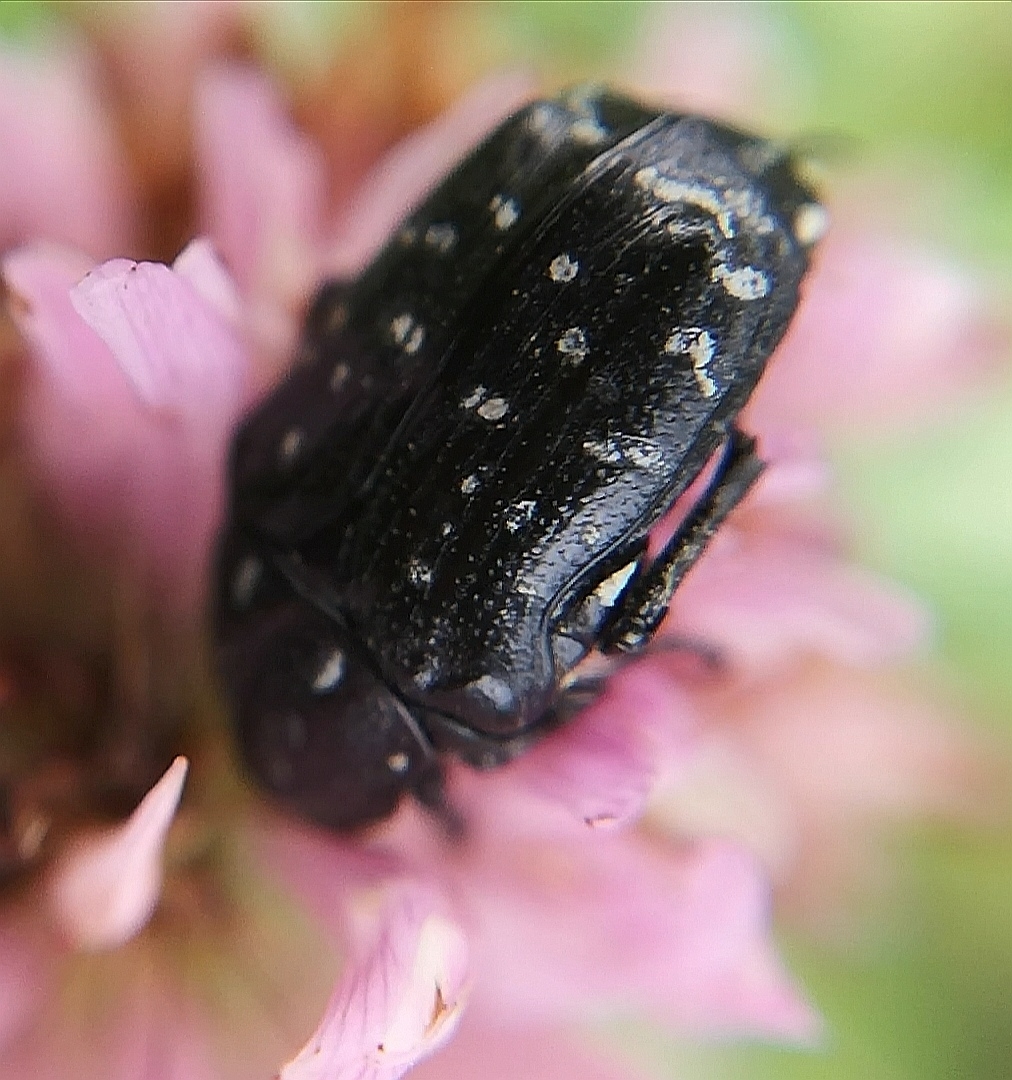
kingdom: Animalia
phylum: Arthropoda
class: Insecta
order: Coleoptera
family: Scarabaeidae
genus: Oxythyrea
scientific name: Oxythyrea funesta
